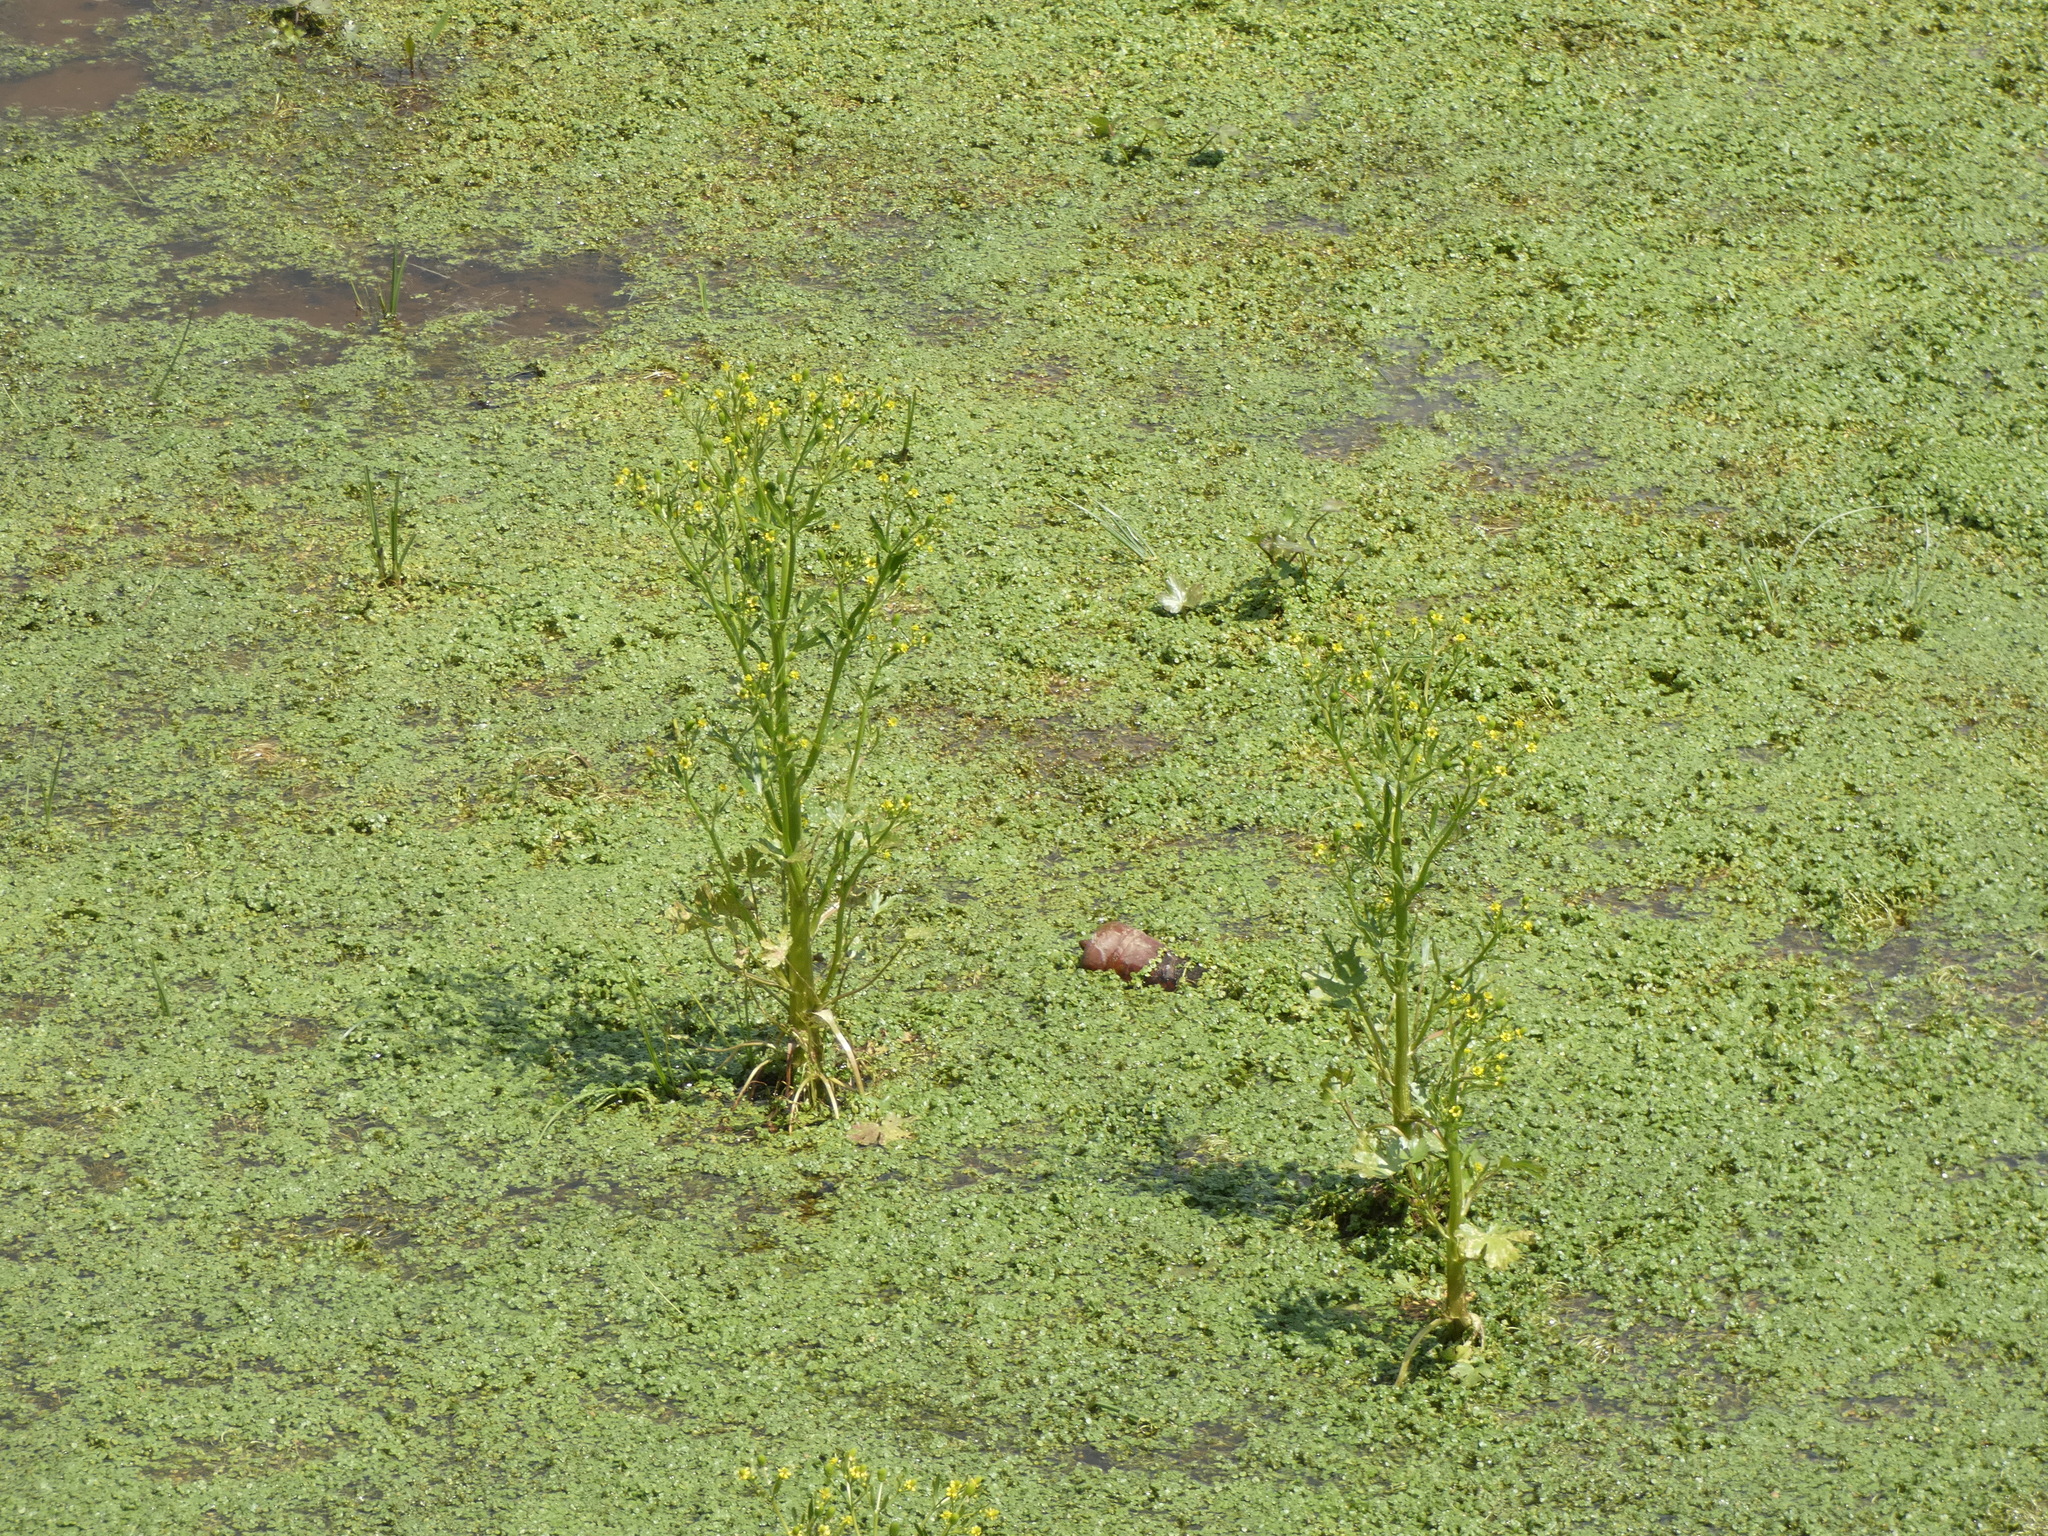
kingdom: Plantae
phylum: Tracheophyta
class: Magnoliopsida
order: Ranunculales
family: Ranunculaceae
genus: Ranunculus
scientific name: Ranunculus sceleratus
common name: Celery-leaved buttercup
